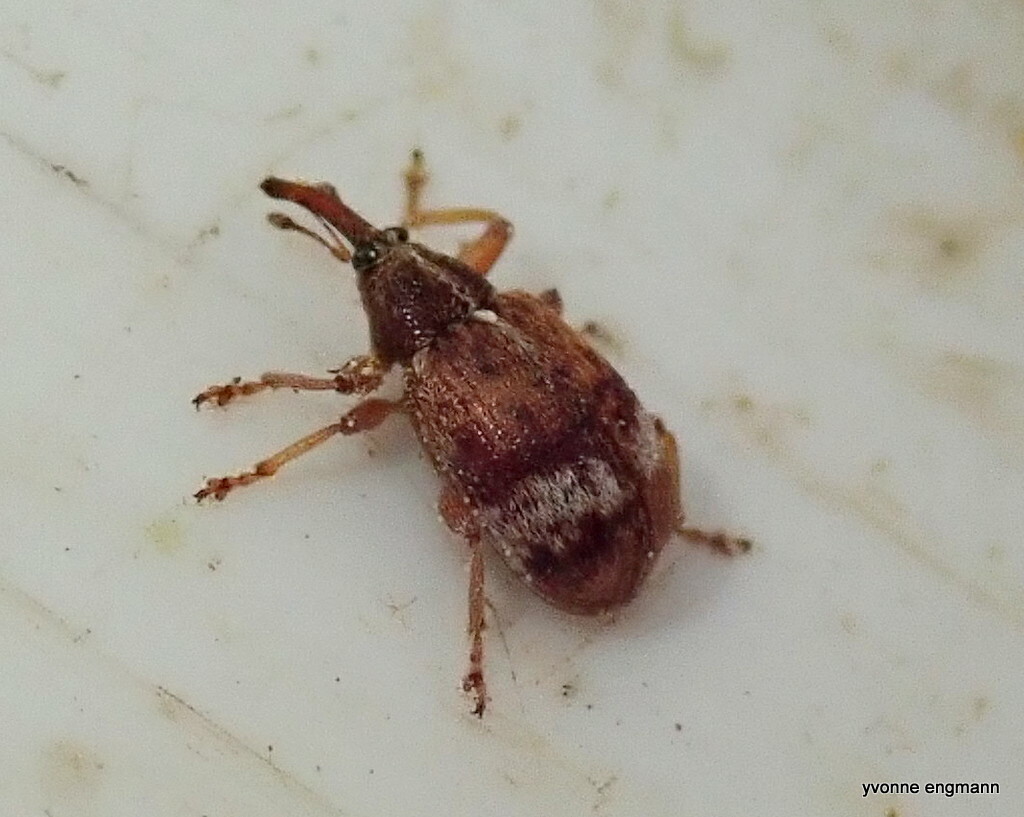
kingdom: Animalia
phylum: Arthropoda
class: Insecta
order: Coleoptera
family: Curculionidae
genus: Anthonomus
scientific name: Anthonomus pedicularius
